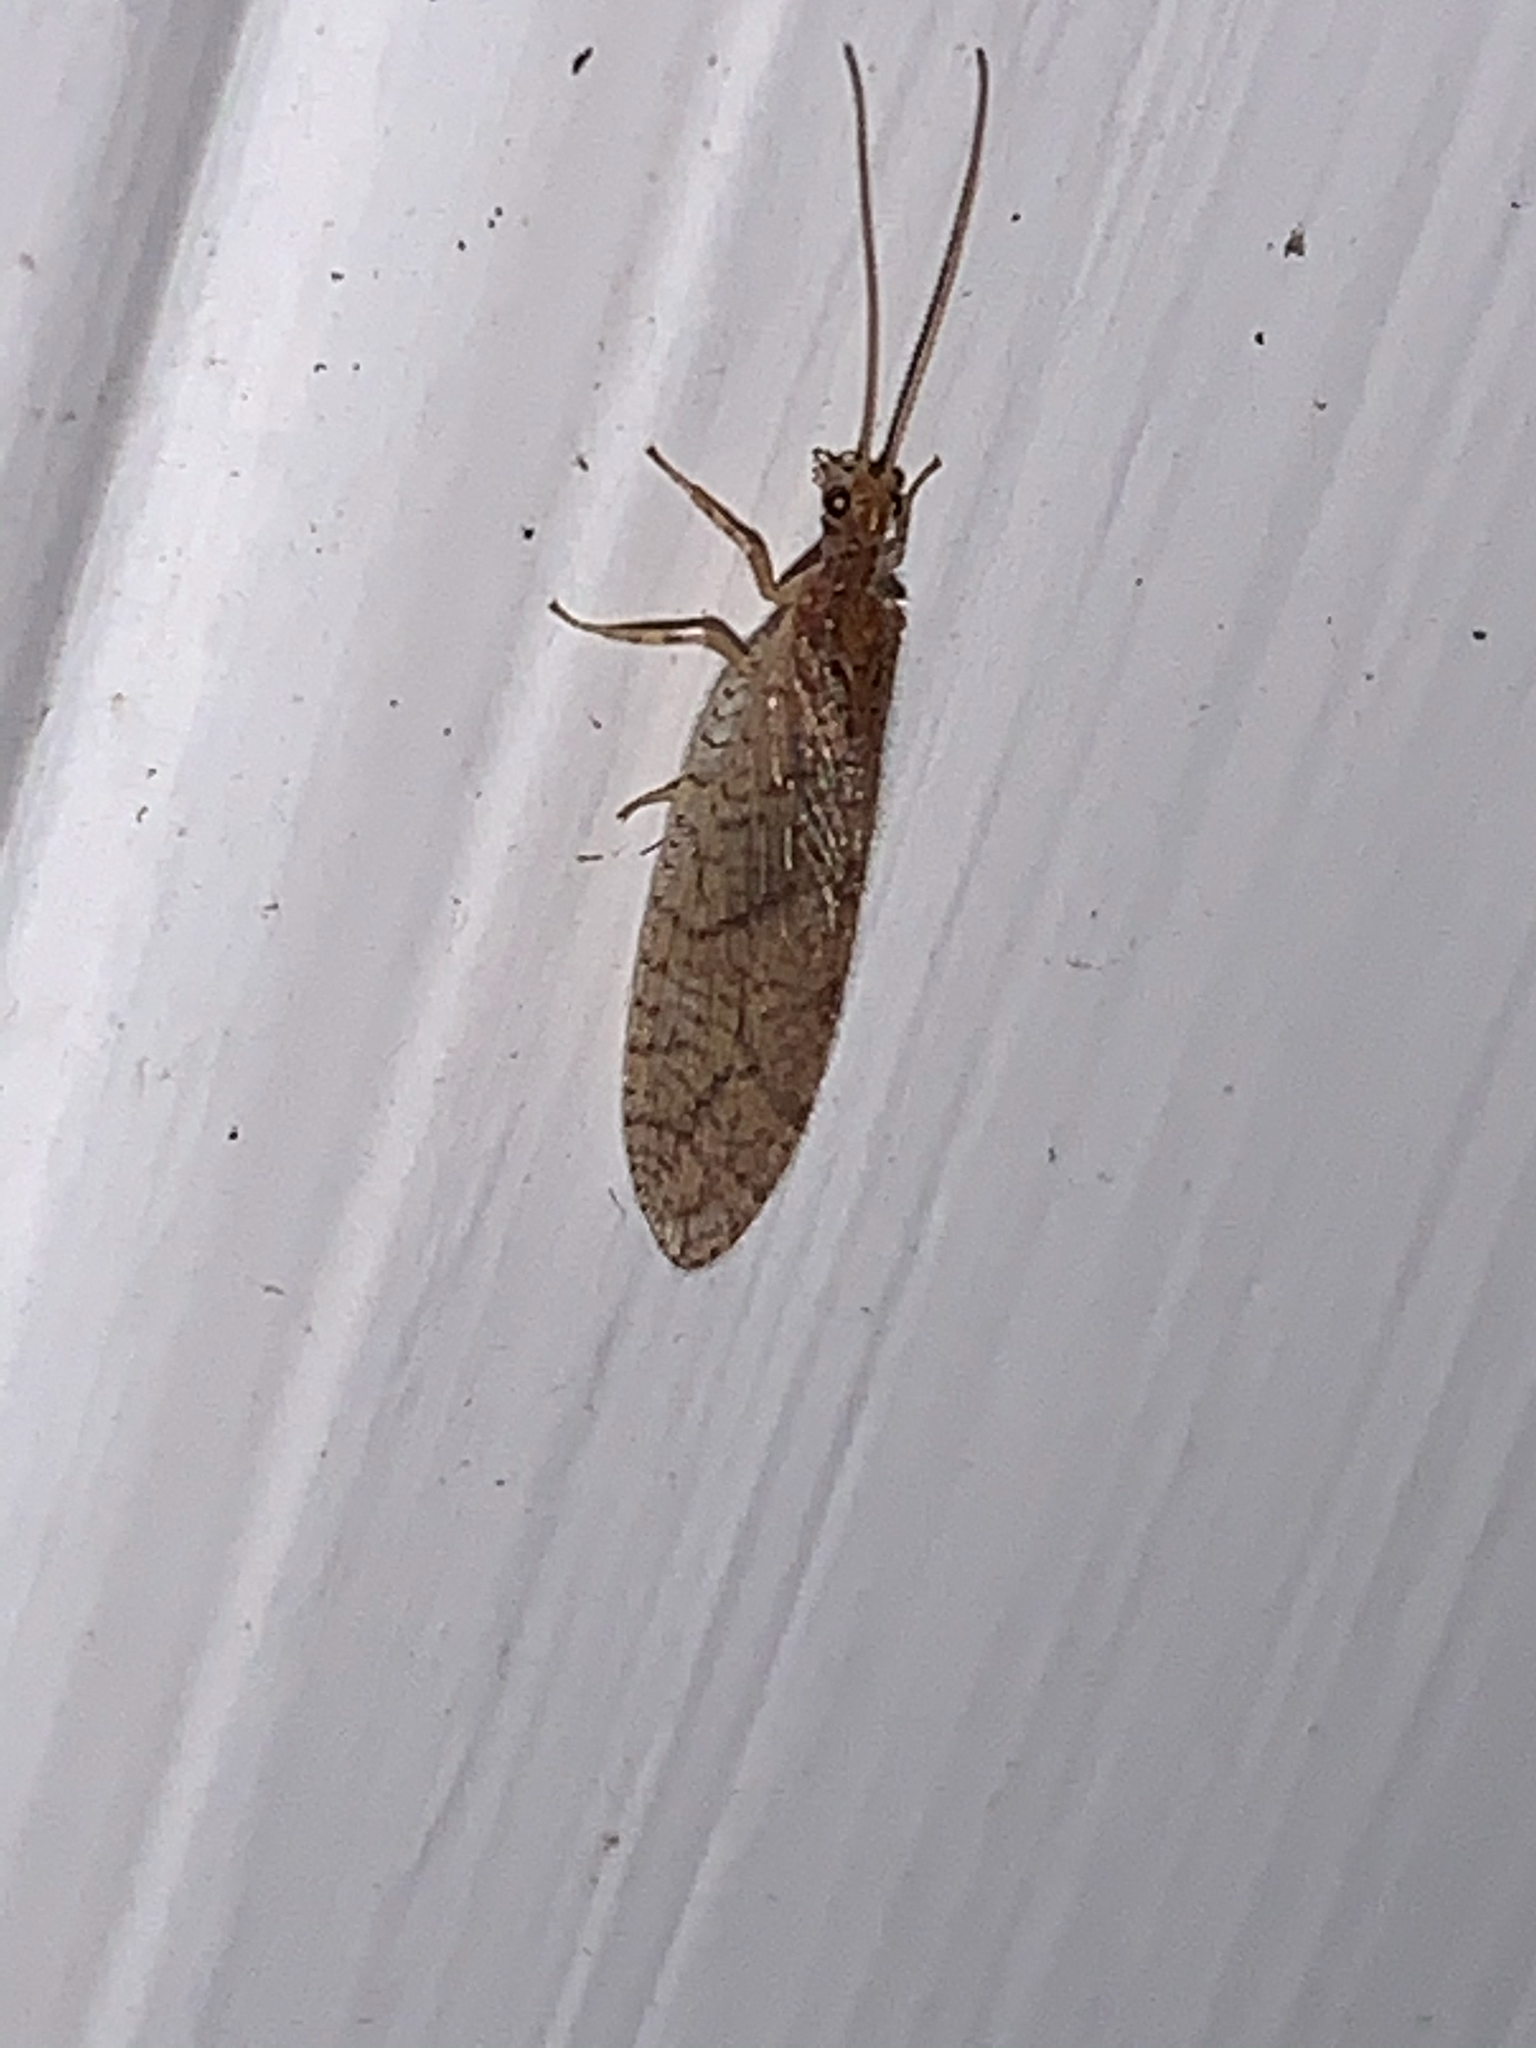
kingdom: Animalia
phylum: Arthropoda
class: Insecta
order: Neuroptera
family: Hemerobiidae
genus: Micromus
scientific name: Micromus posticus
